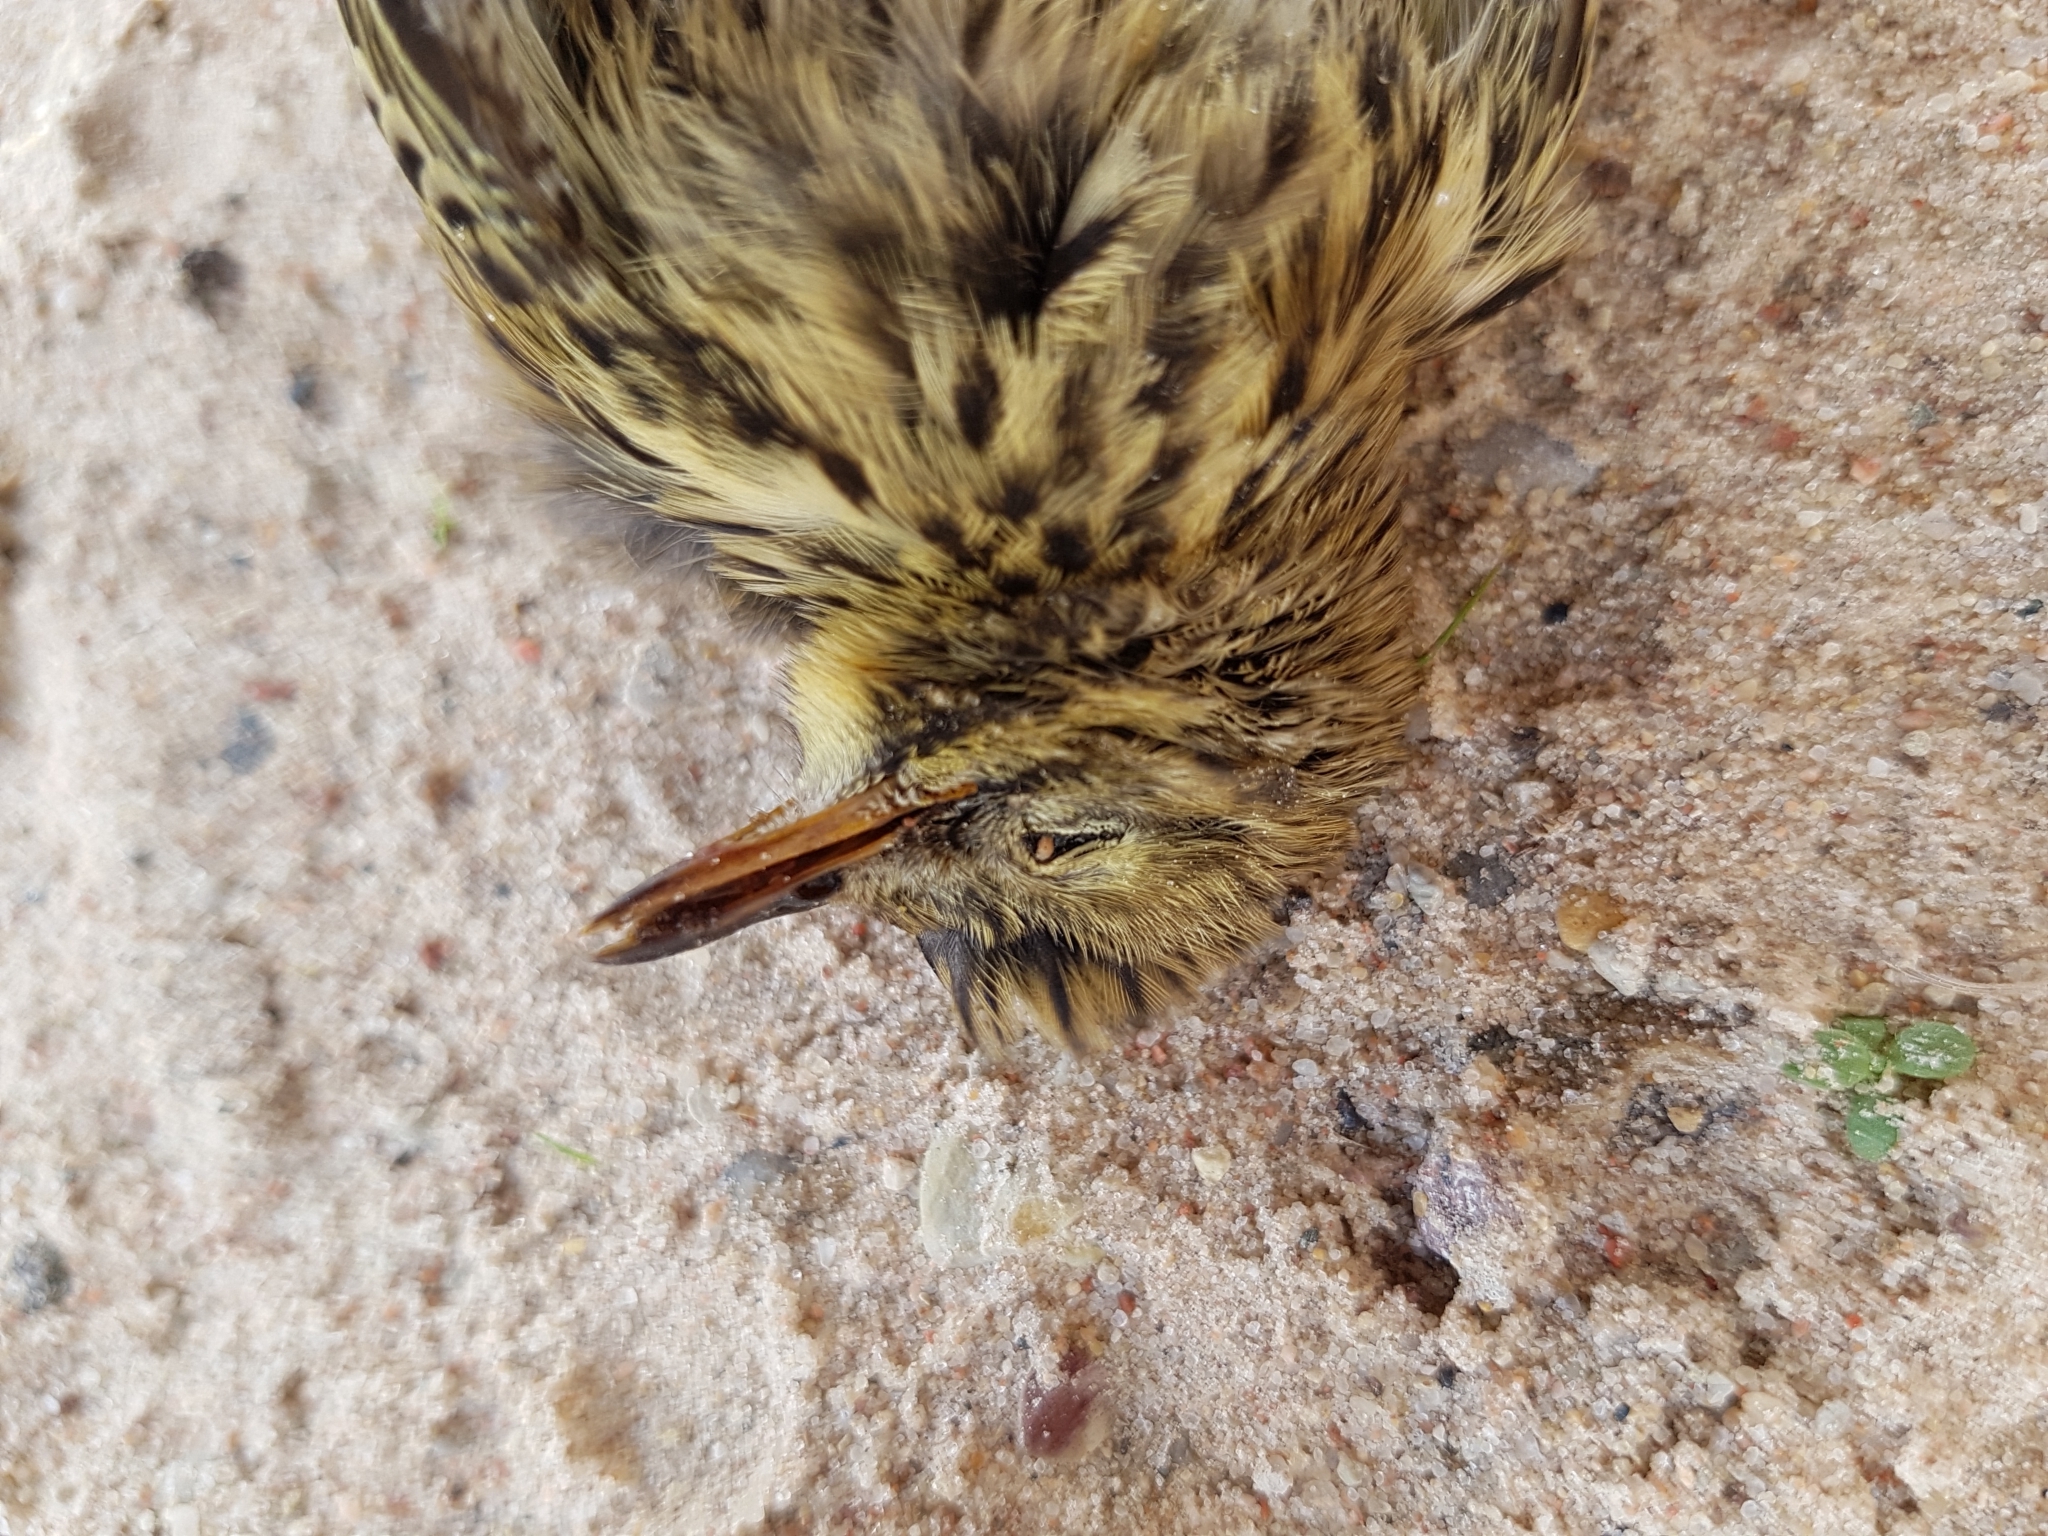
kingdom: Animalia
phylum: Chordata
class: Aves
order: Passeriformes
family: Motacillidae
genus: Anthus
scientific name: Anthus pratensis
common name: Meadow pipit
